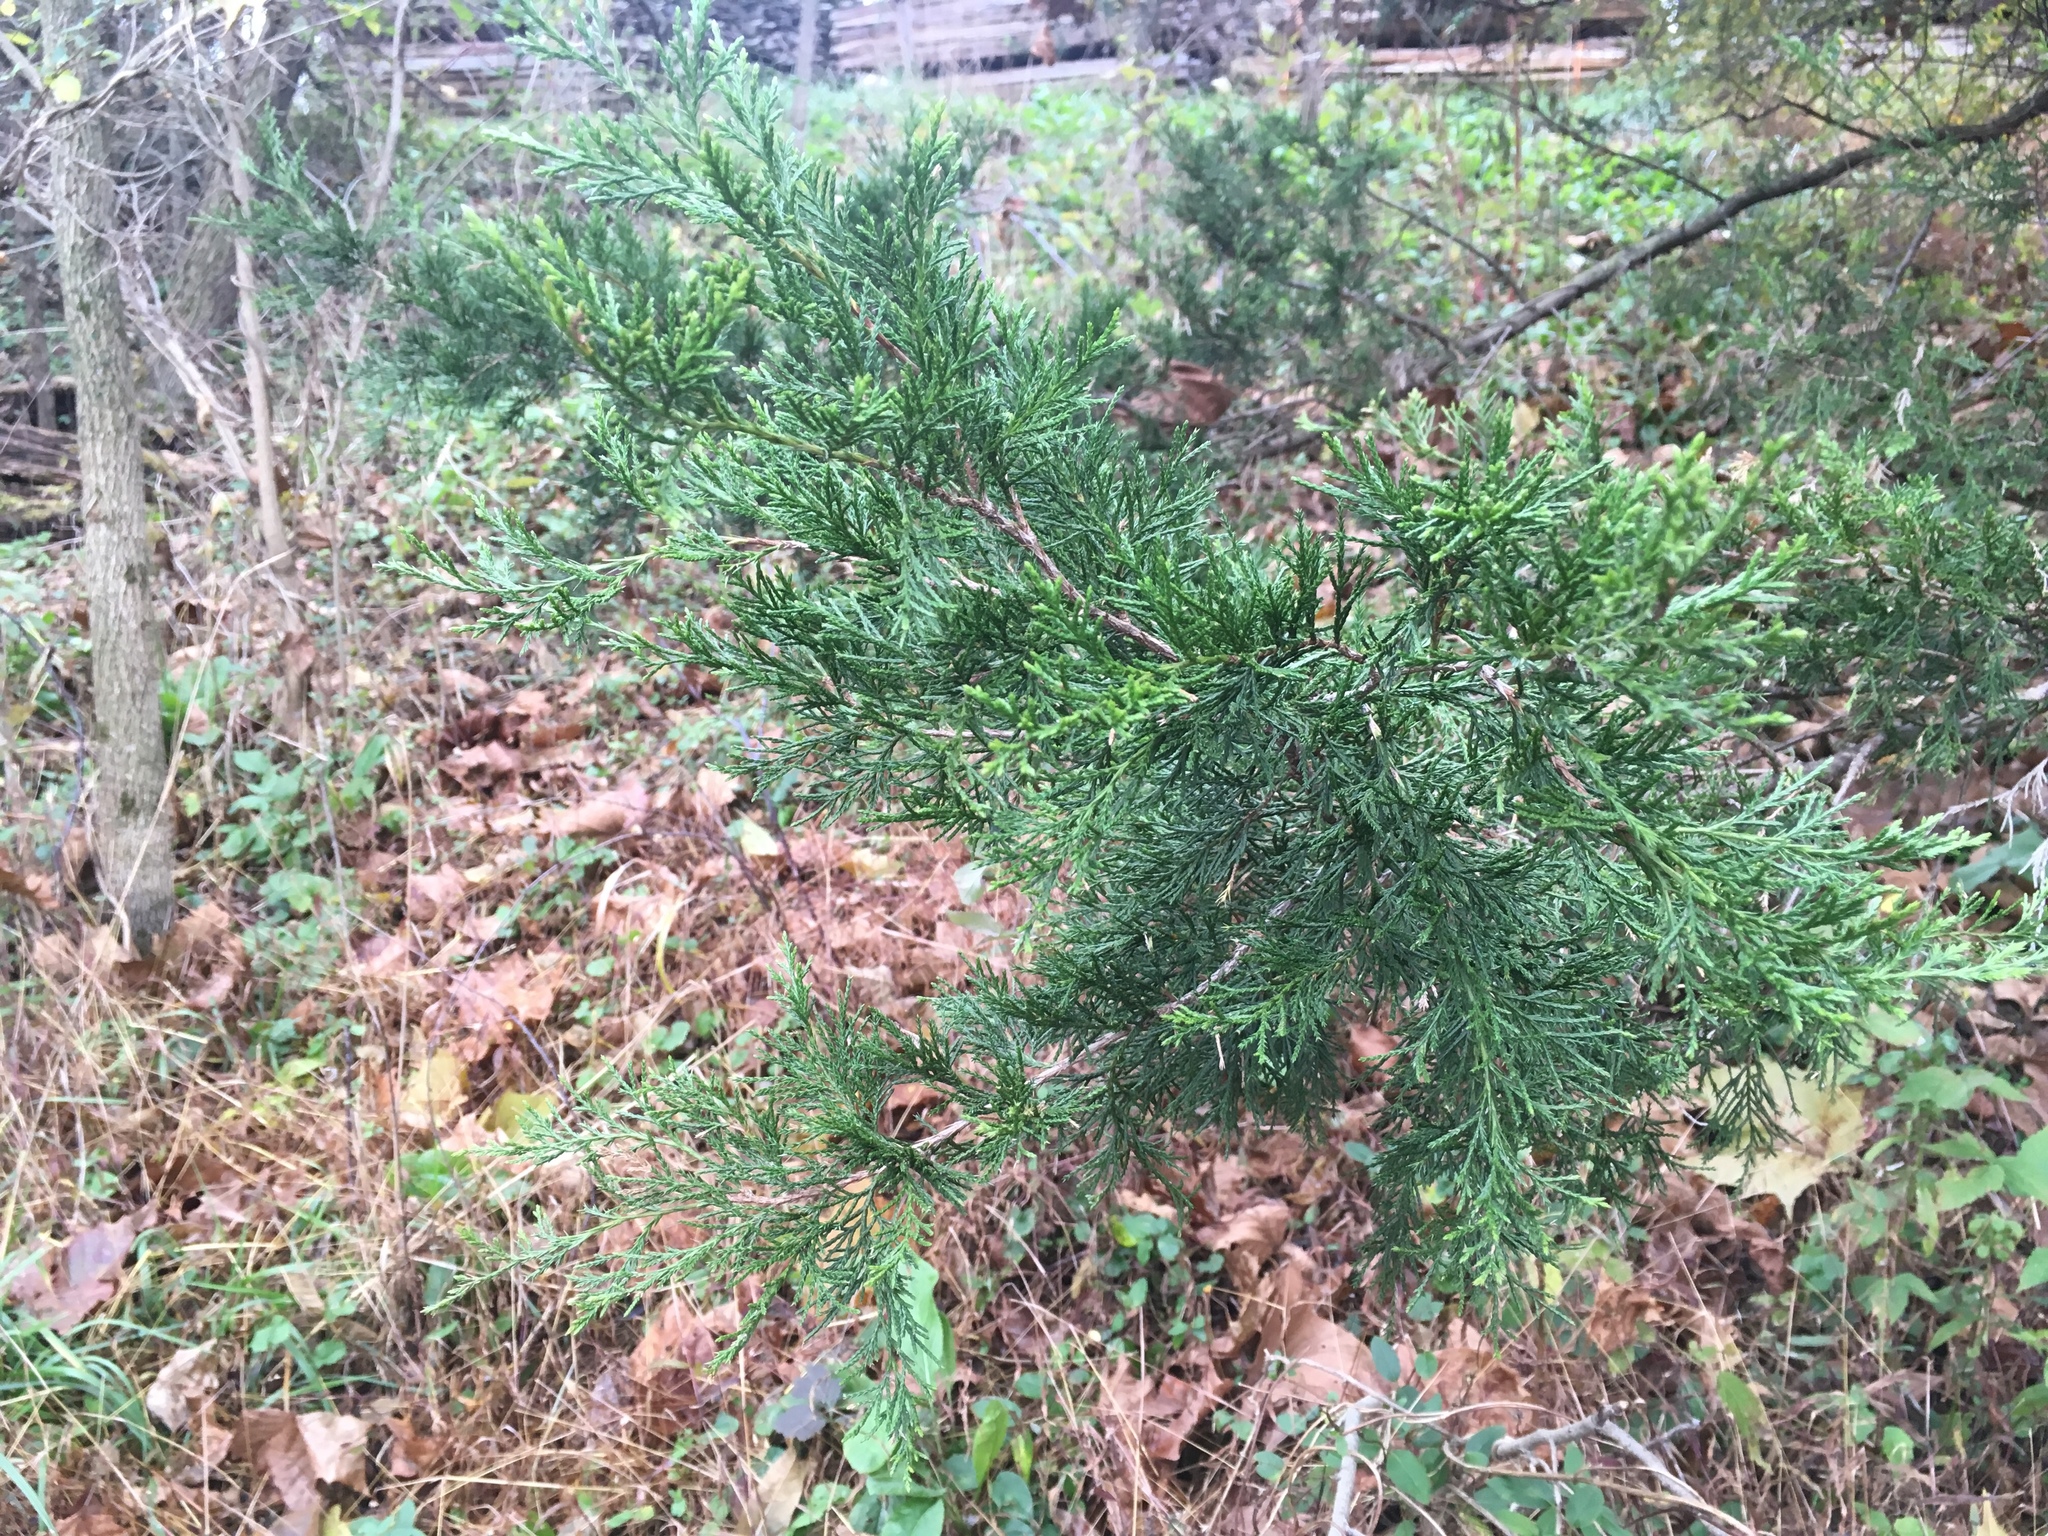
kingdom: Plantae
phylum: Tracheophyta
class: Pinopsida
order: Pinales
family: Cupressaceae
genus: Juniperus
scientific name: Juniperus virginiana
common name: Red juniper
